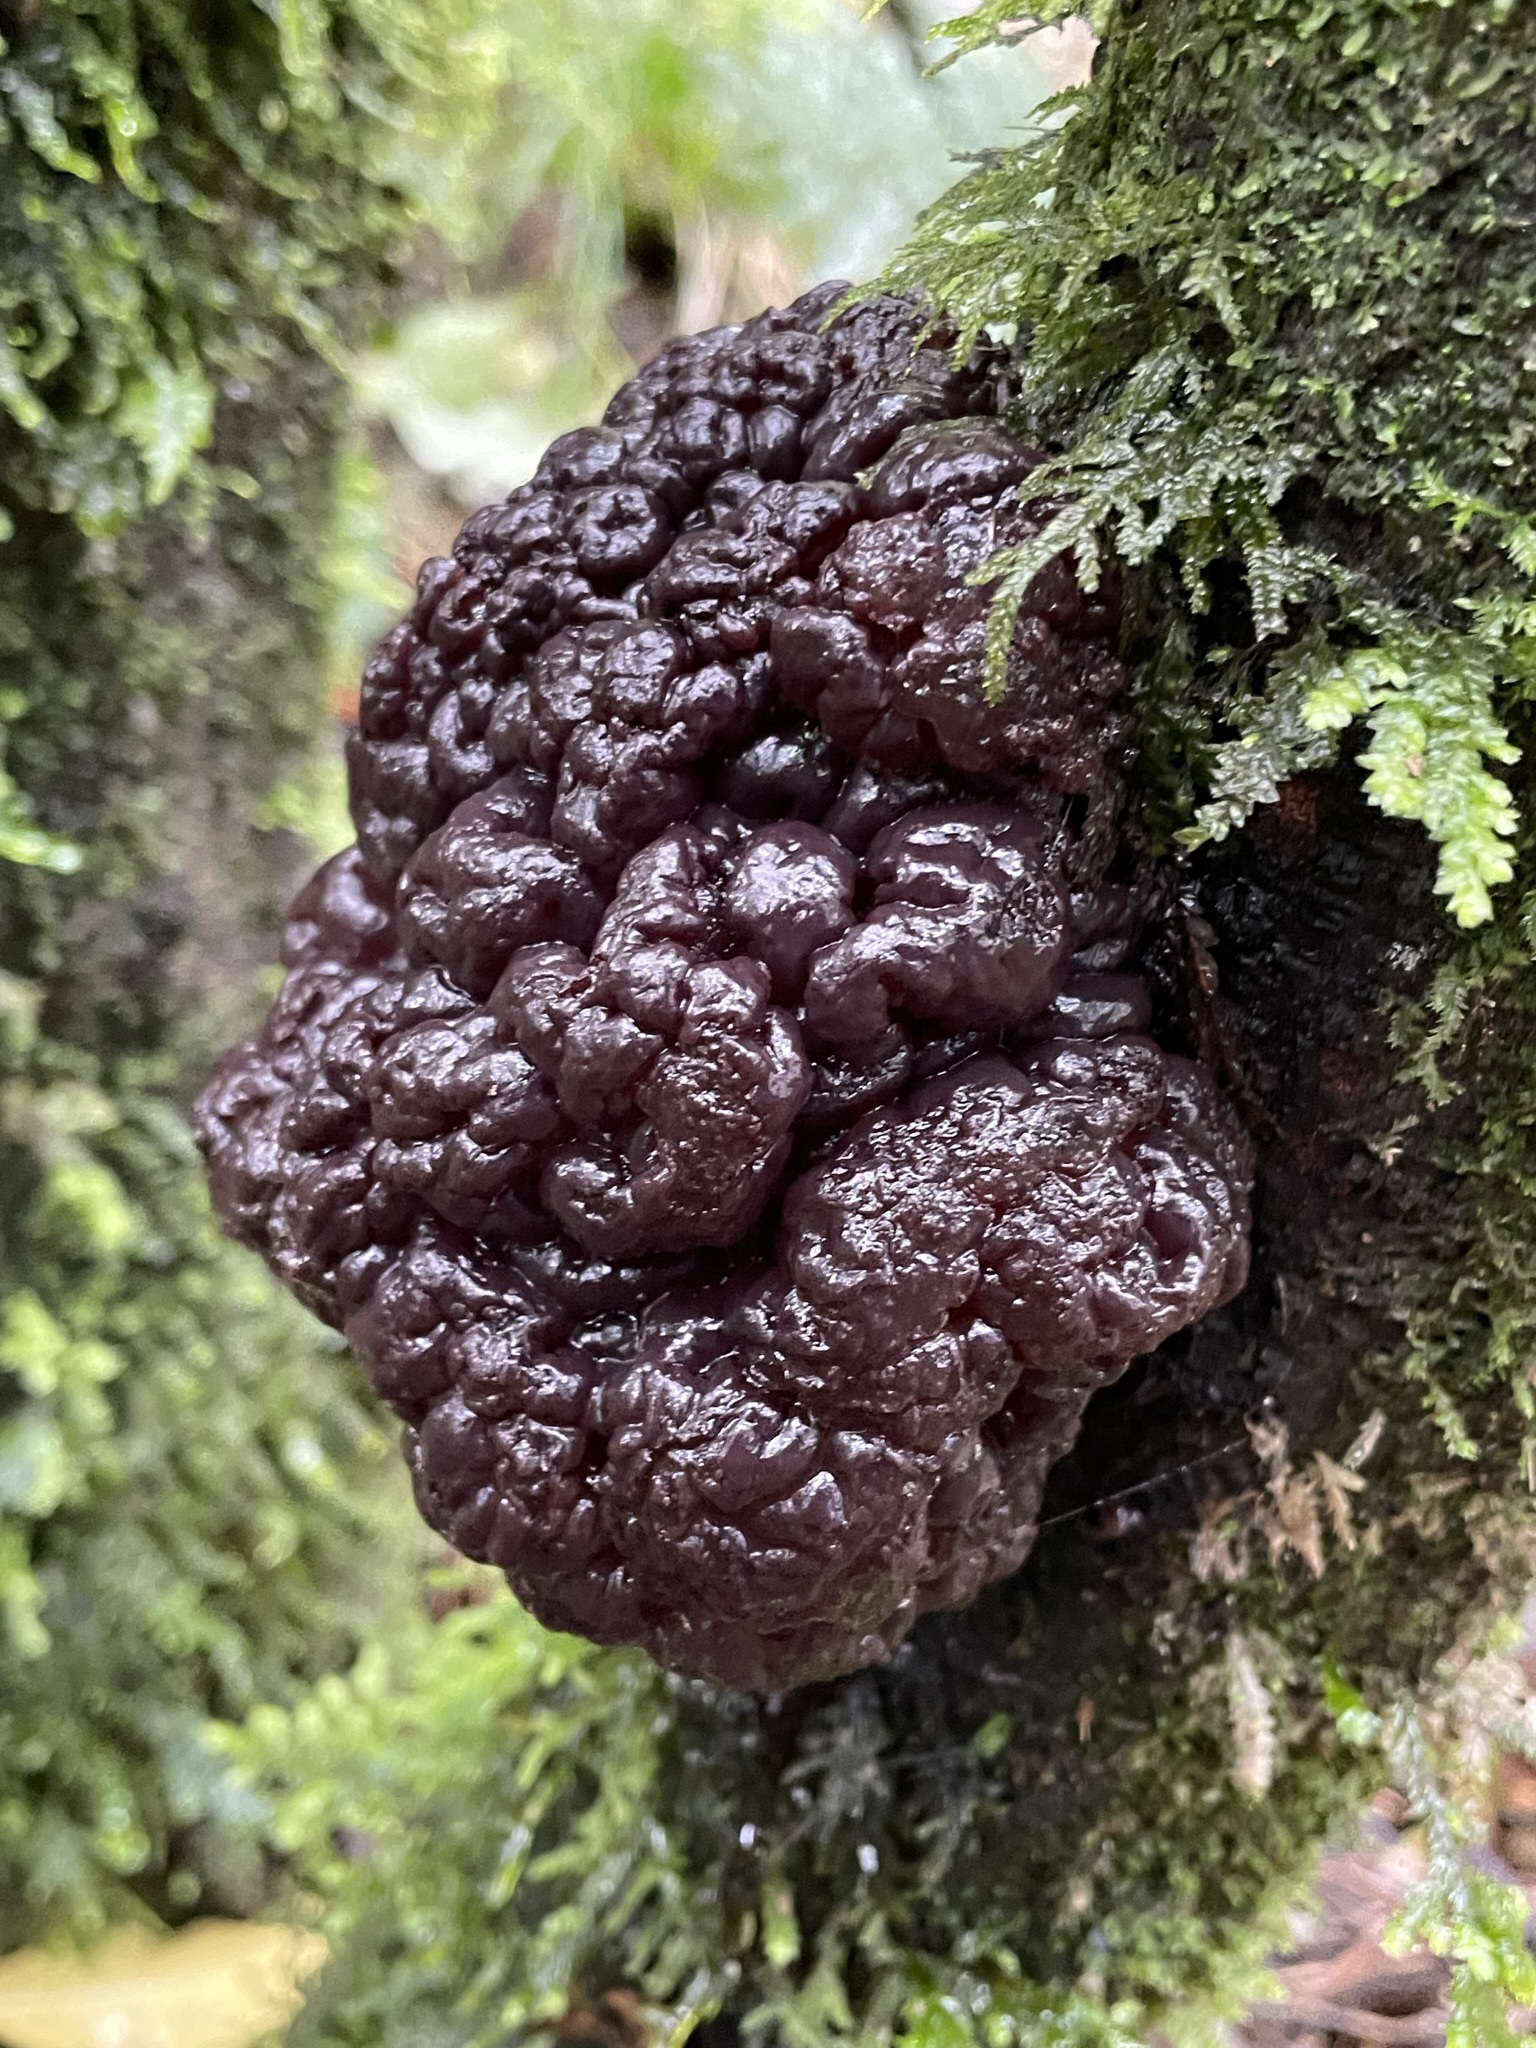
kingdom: Fungi
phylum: Ascomycota
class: Leotiomycetes
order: Helotiales
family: Gelatinodiscaceae
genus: Ascotremella
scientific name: Ascotremella faginea
